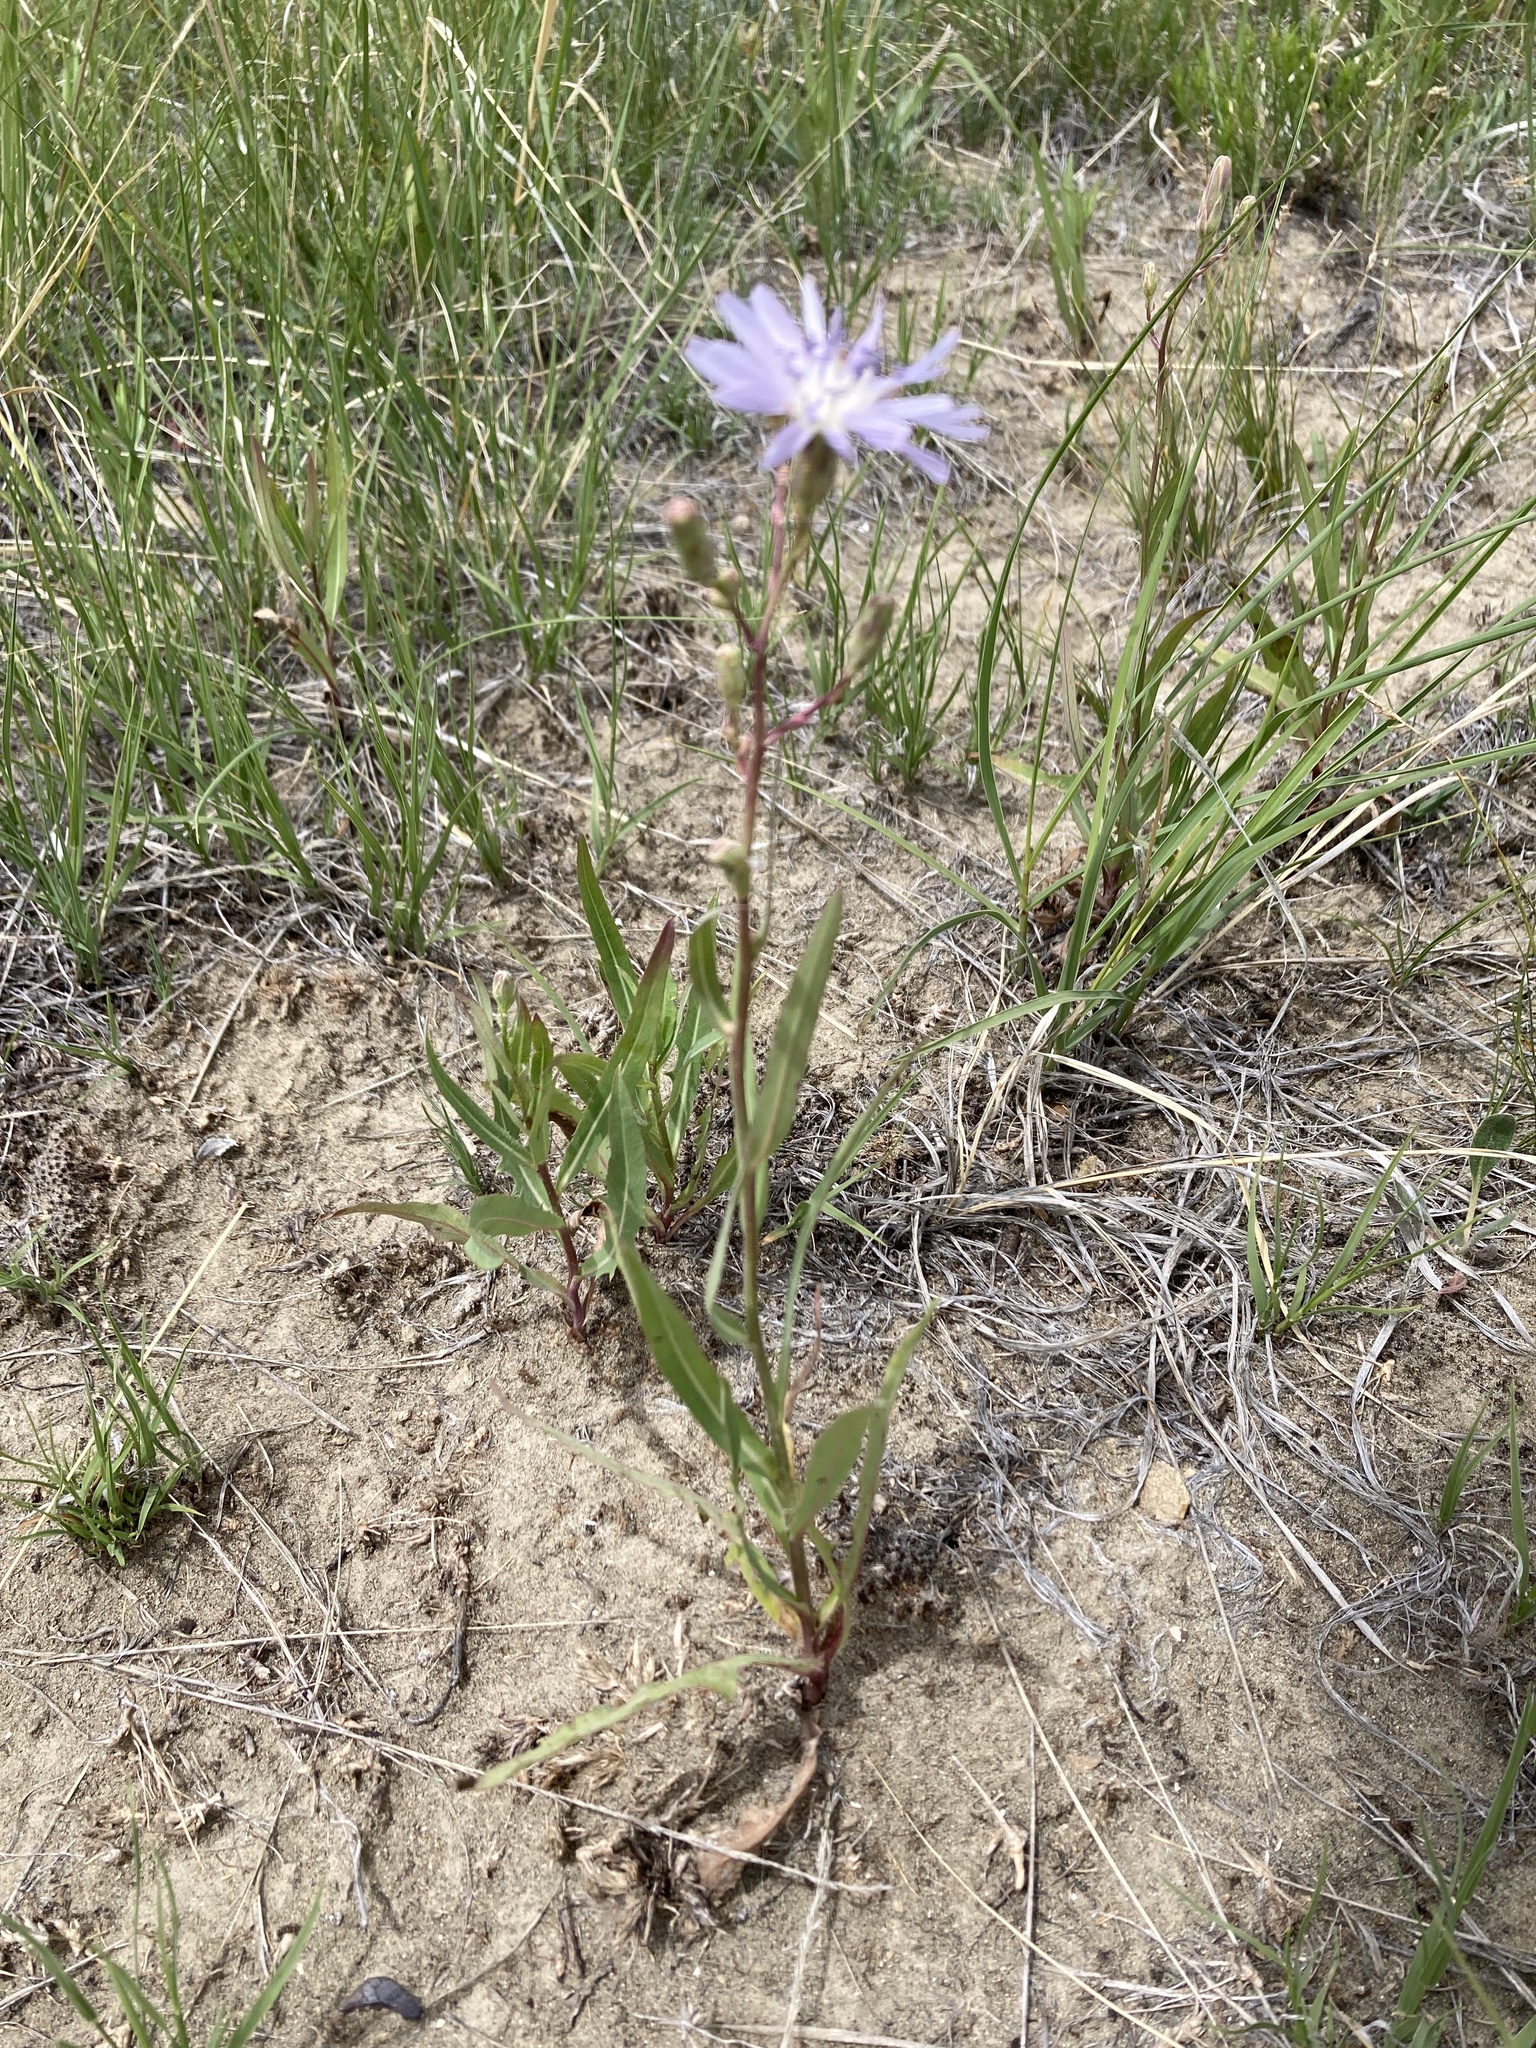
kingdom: Plantae
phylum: Tracheophyta
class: Magnoliopsida
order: Asterales
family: Asteraceae
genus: Lactuca
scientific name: Lactuca pulchella
